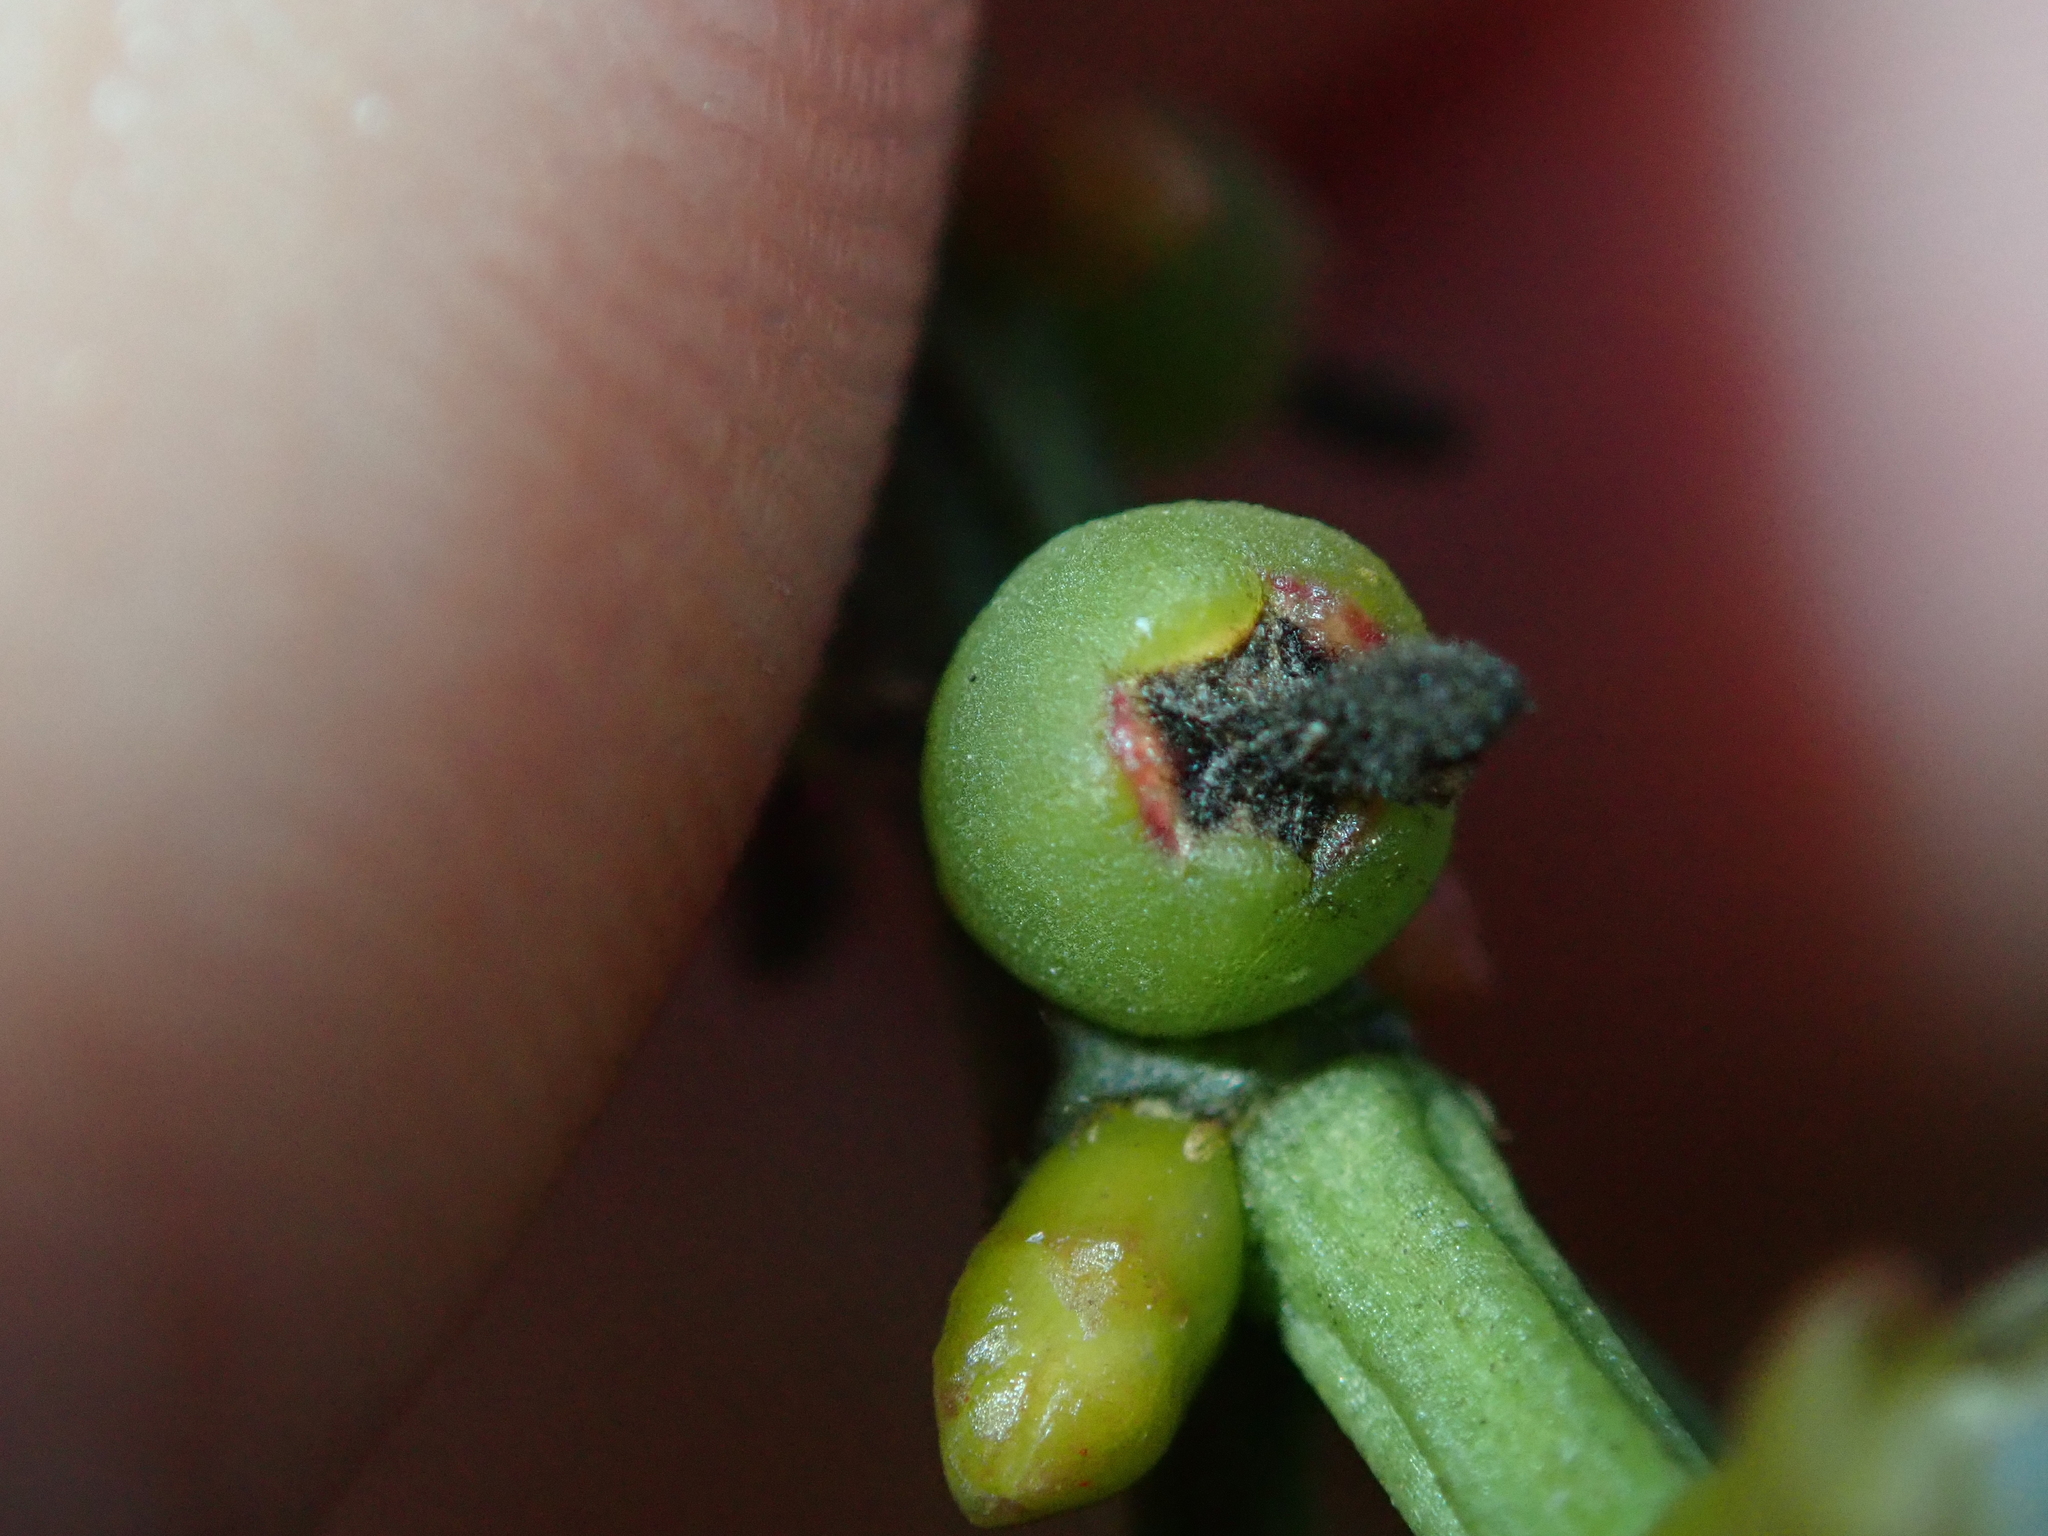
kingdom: Plantae
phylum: Tracheophyta
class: Magnoliopsida
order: Caryophyllales
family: Cactaceae
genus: Rhipsalis
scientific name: Rhipsalis teres
